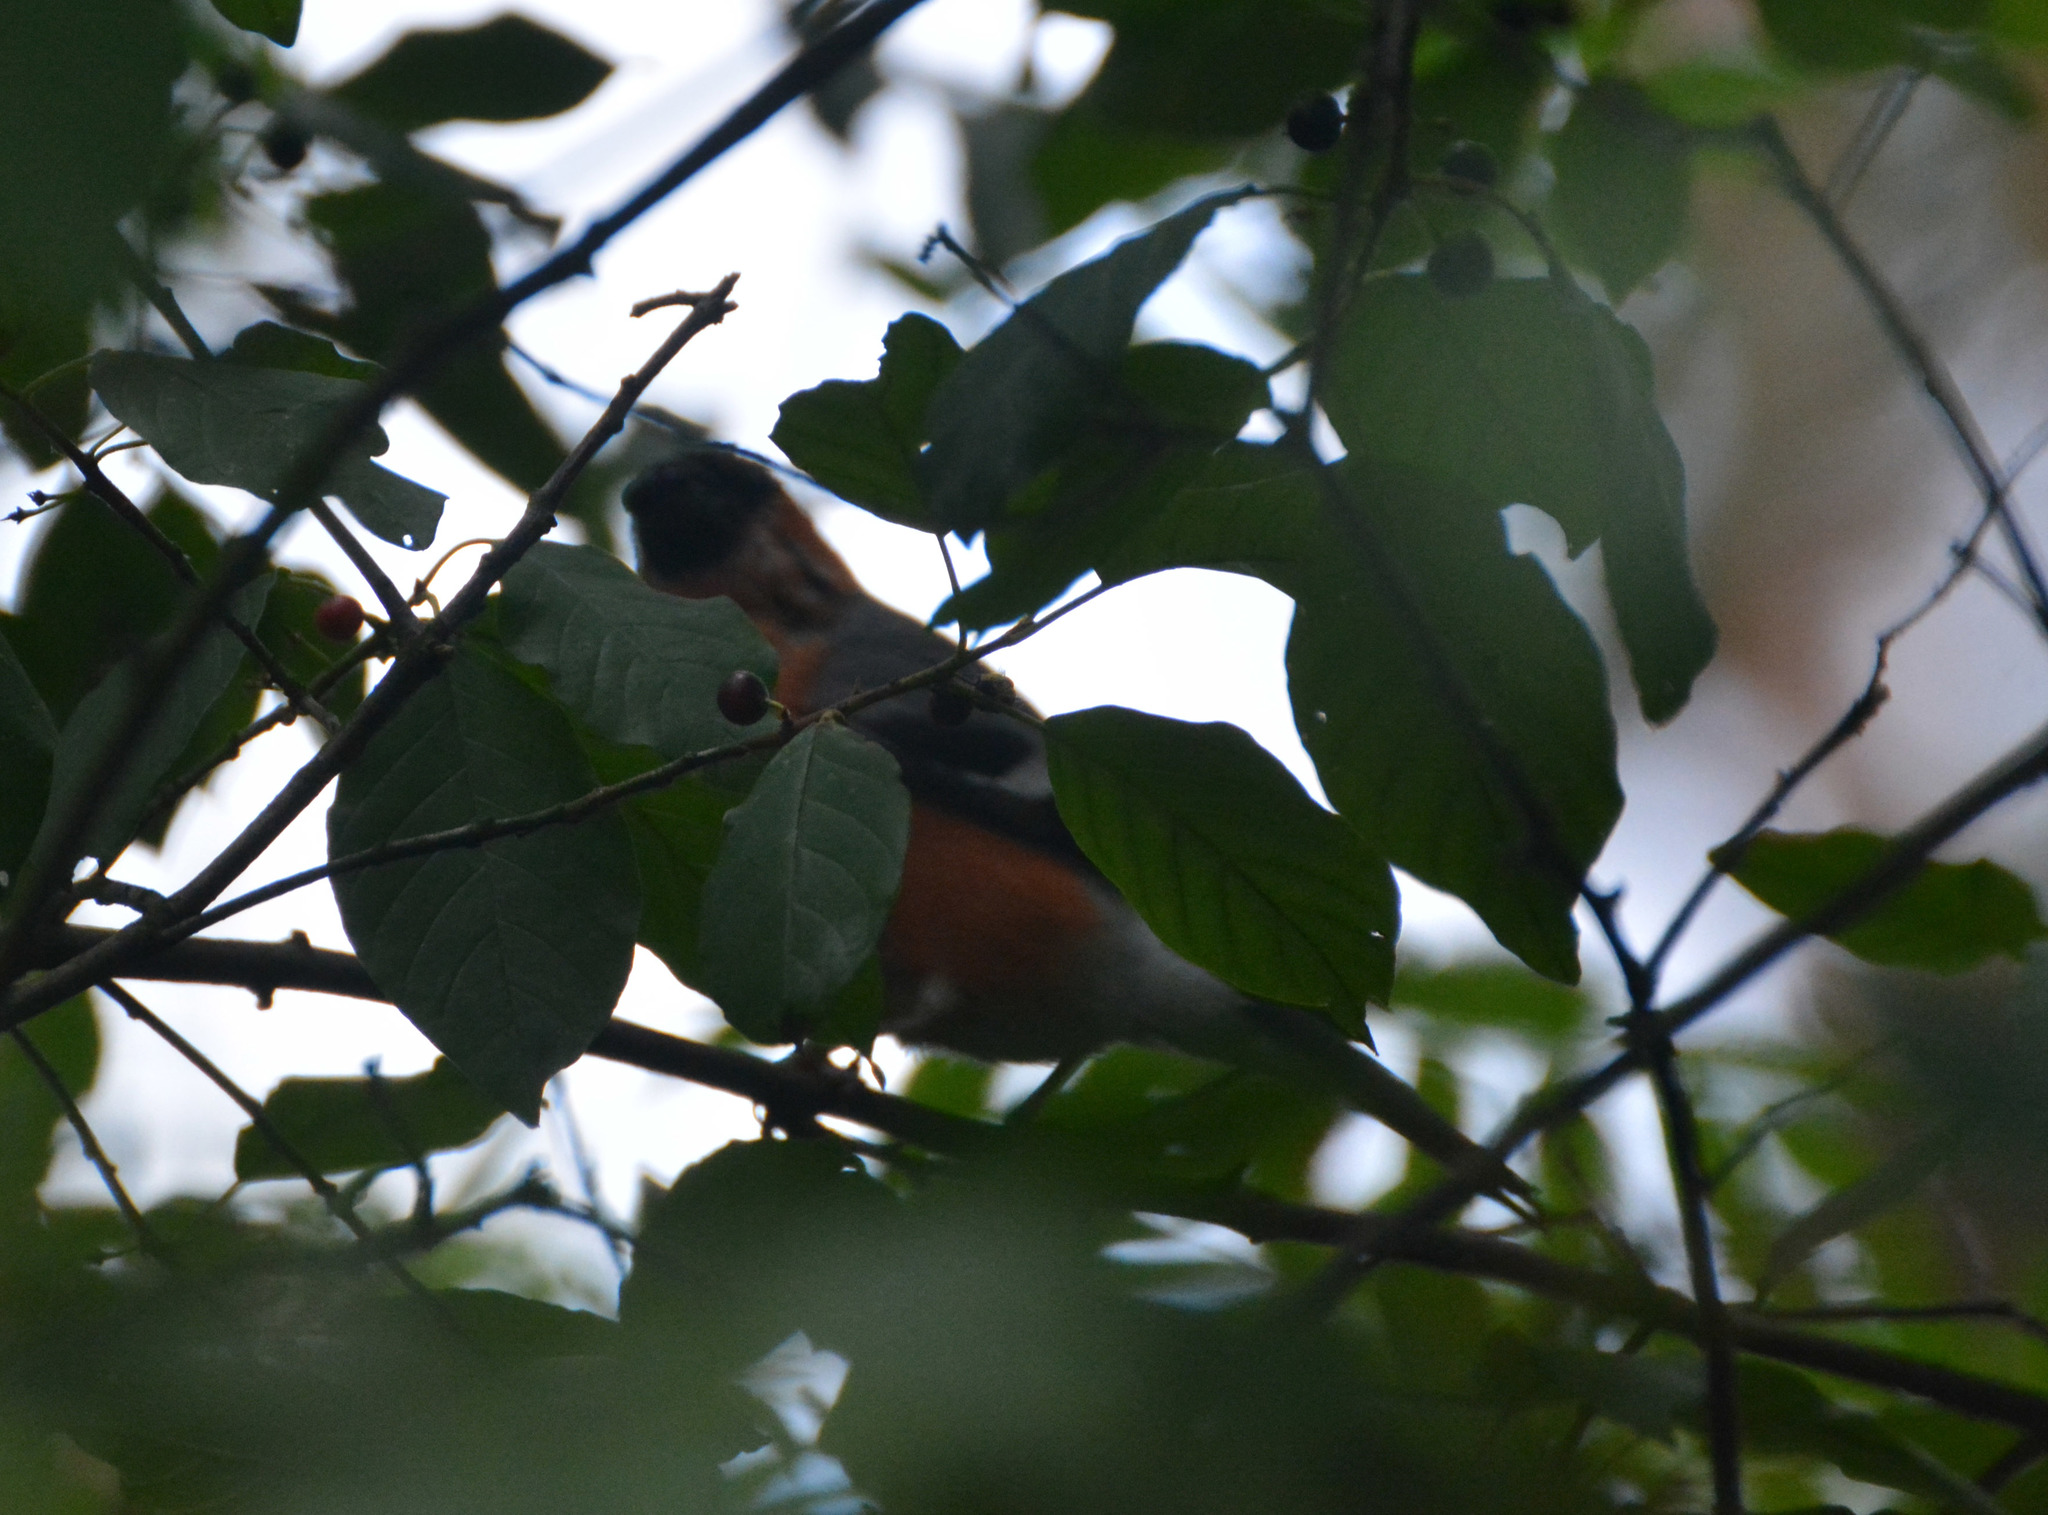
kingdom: Animalia
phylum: Chordata
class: Aves
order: Passeriformes
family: Fringillidae
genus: Pyrrhula
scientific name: Pyrrhula pyrrhula
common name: Eurasian bullfinch
